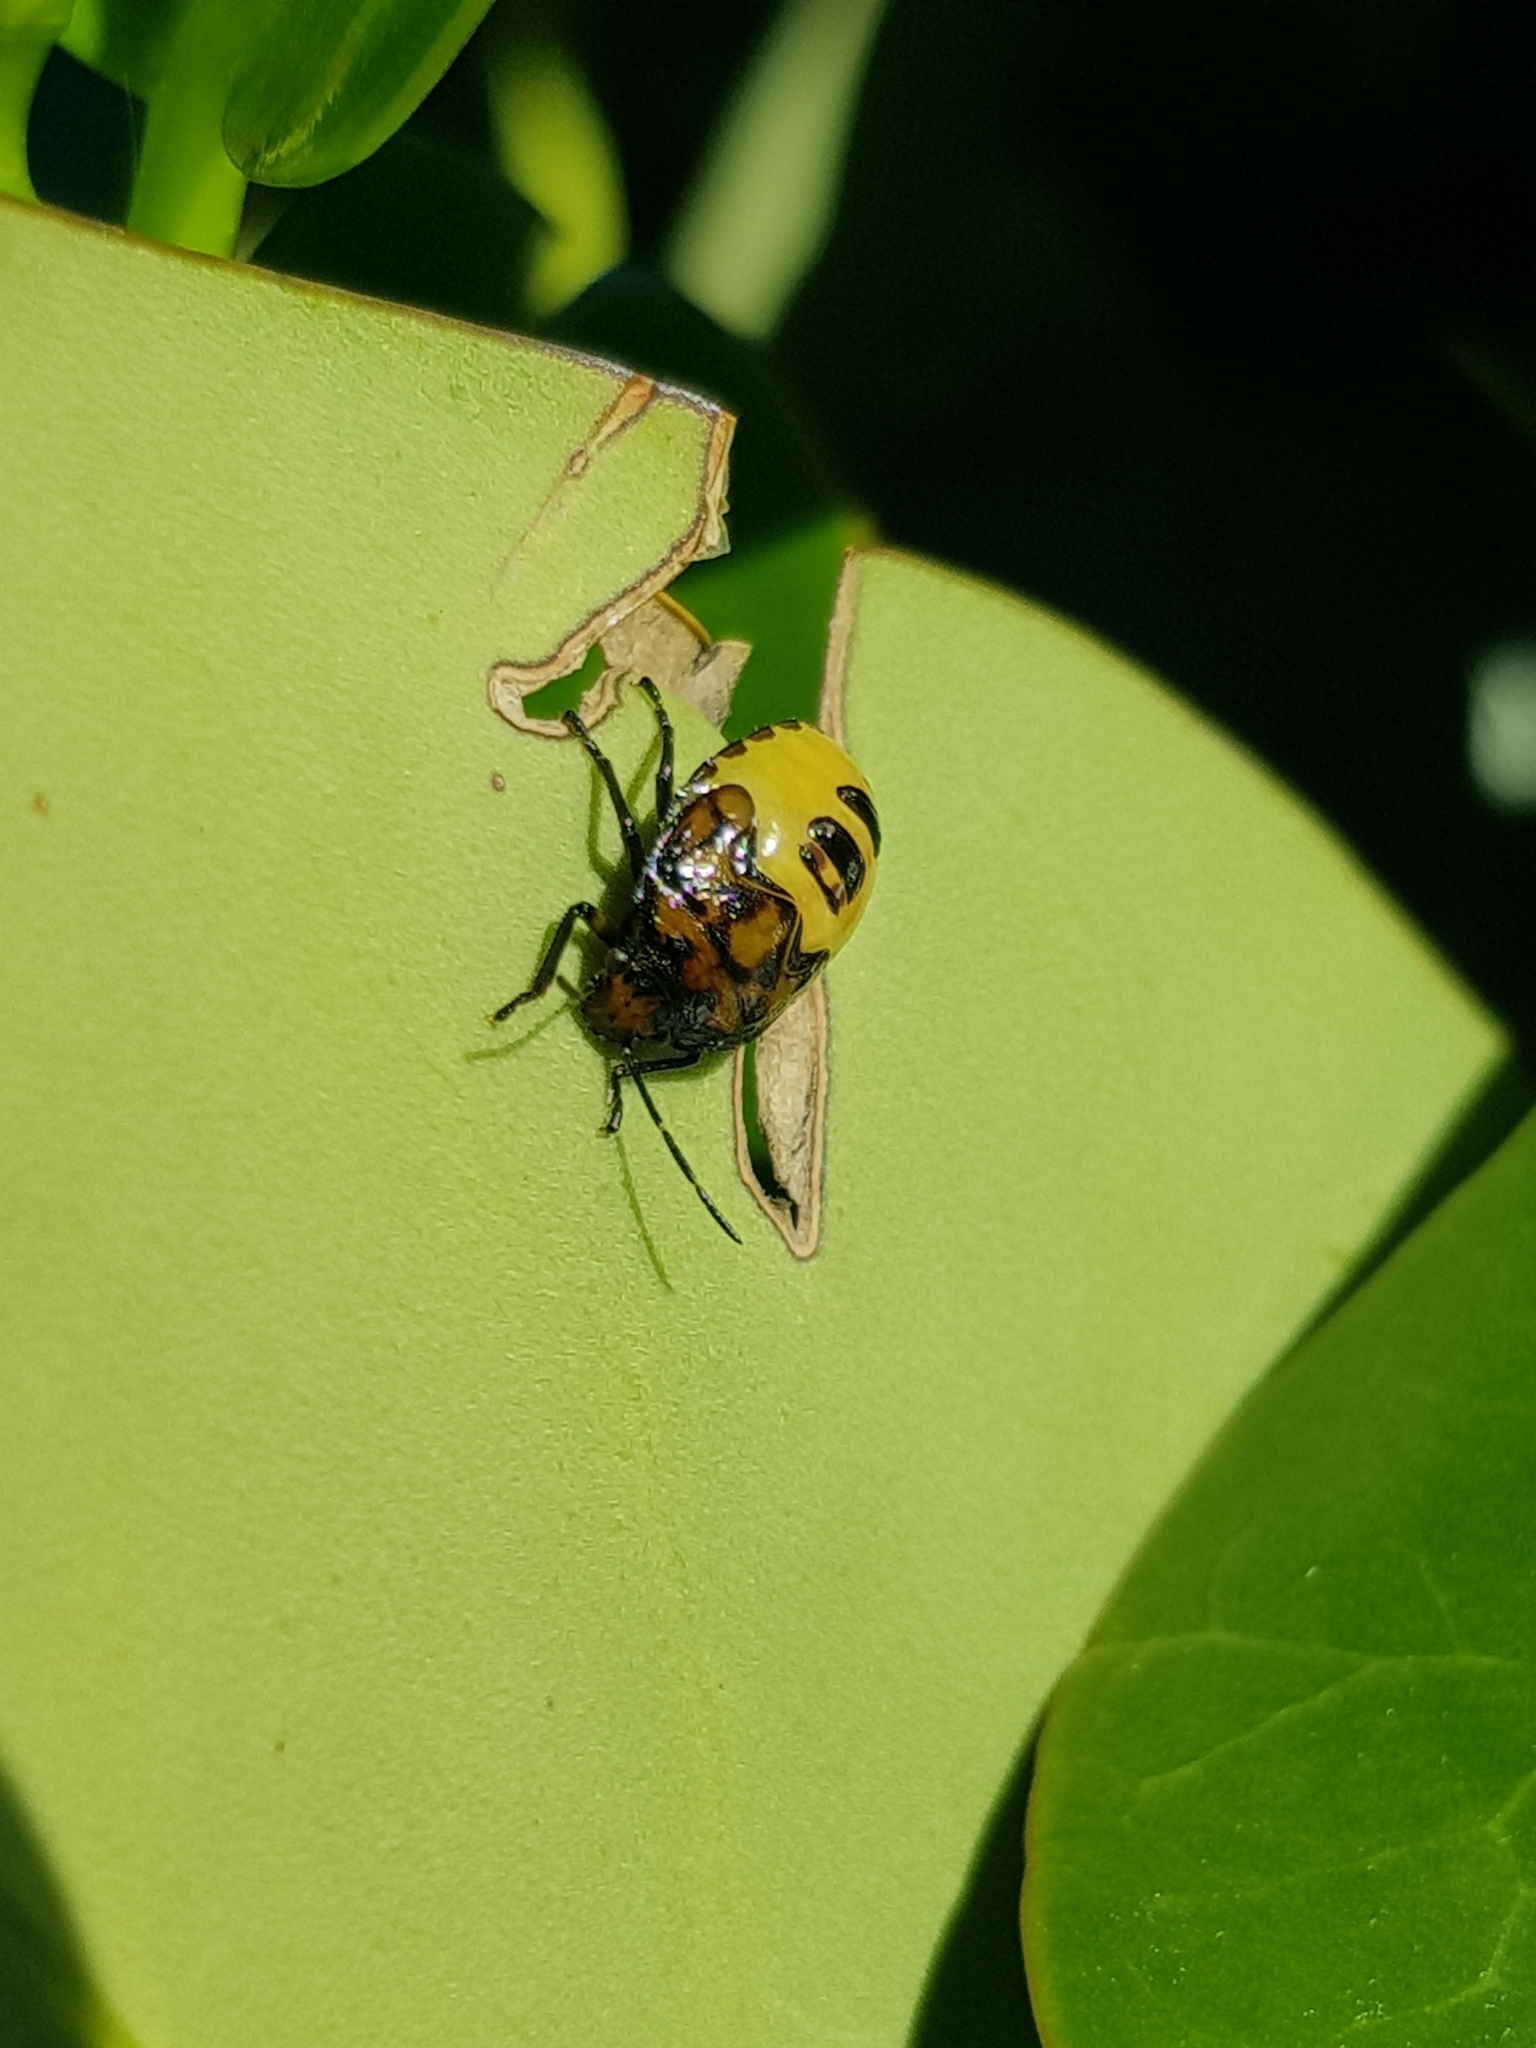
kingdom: Animalia
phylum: Arthropoda
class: Insecta
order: Hemiptera
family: Pentatomidae
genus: Glaucias
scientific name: Glaucias amyota
